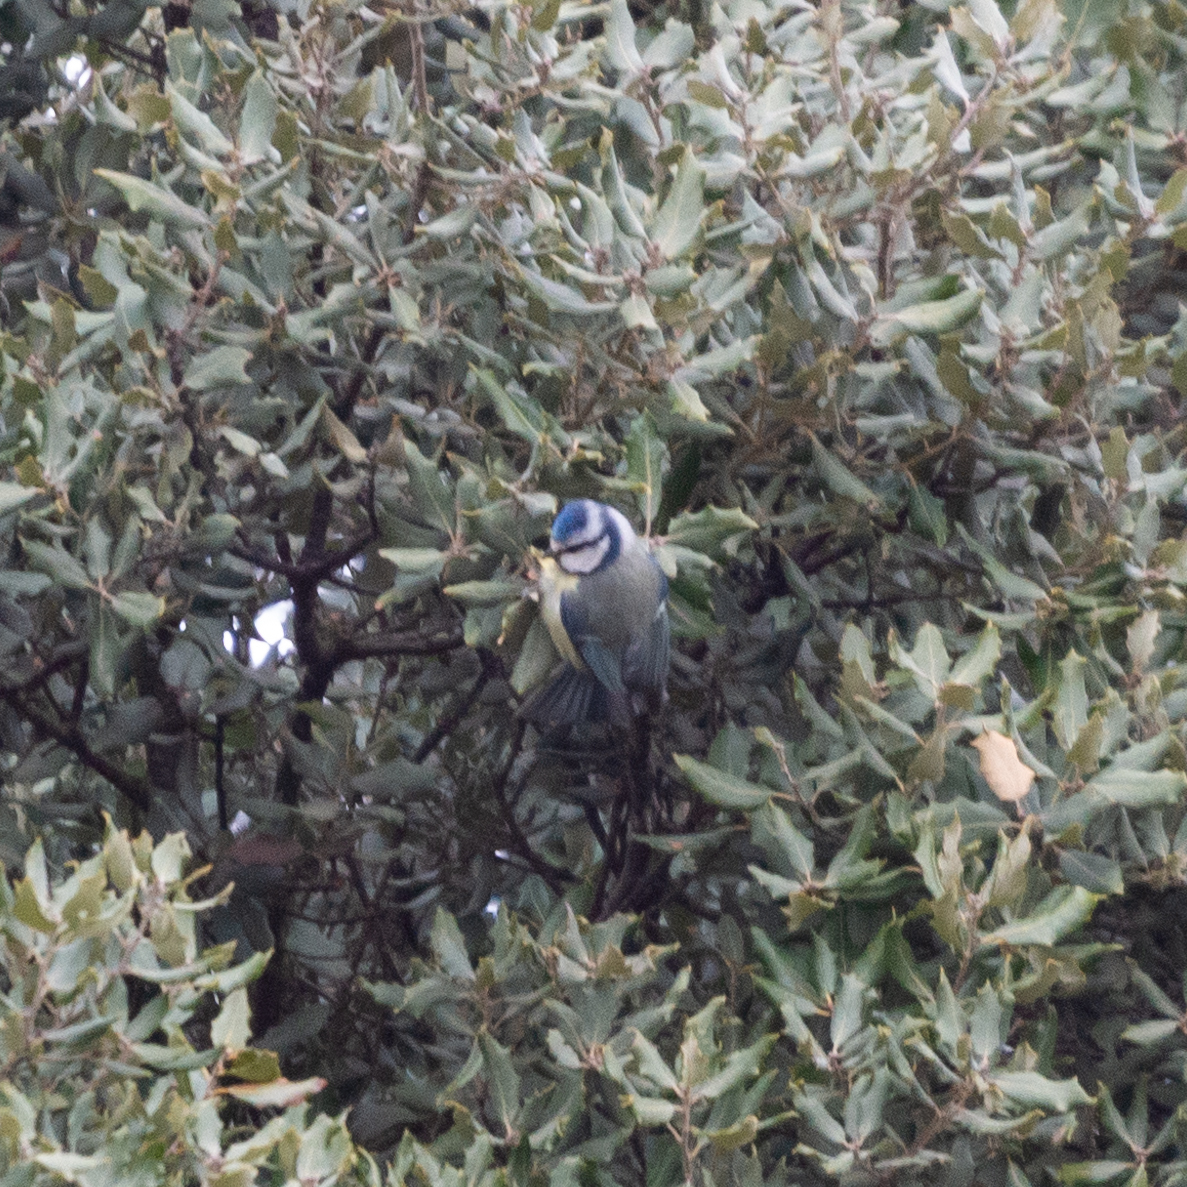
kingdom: Animalia
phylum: Chordata
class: Aves
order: Passeriformes
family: Paridae
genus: Cyanistes
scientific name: Cyanistes caeruleus
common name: Eurasian blue tit
